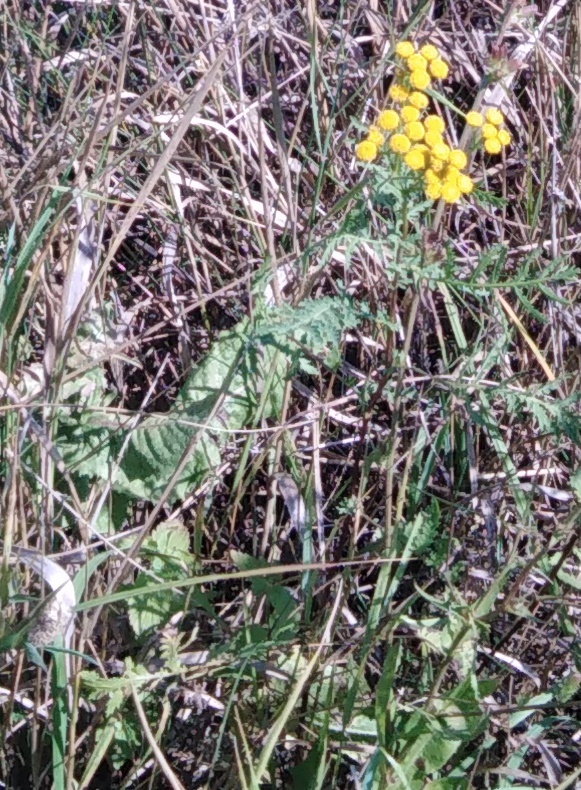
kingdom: Plantae
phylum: Tracheophyta
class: Magnoliopsida
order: Asterales
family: Asteraceae
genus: Tanacetum
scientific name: Tanacetum vulgare
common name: Common tansy
